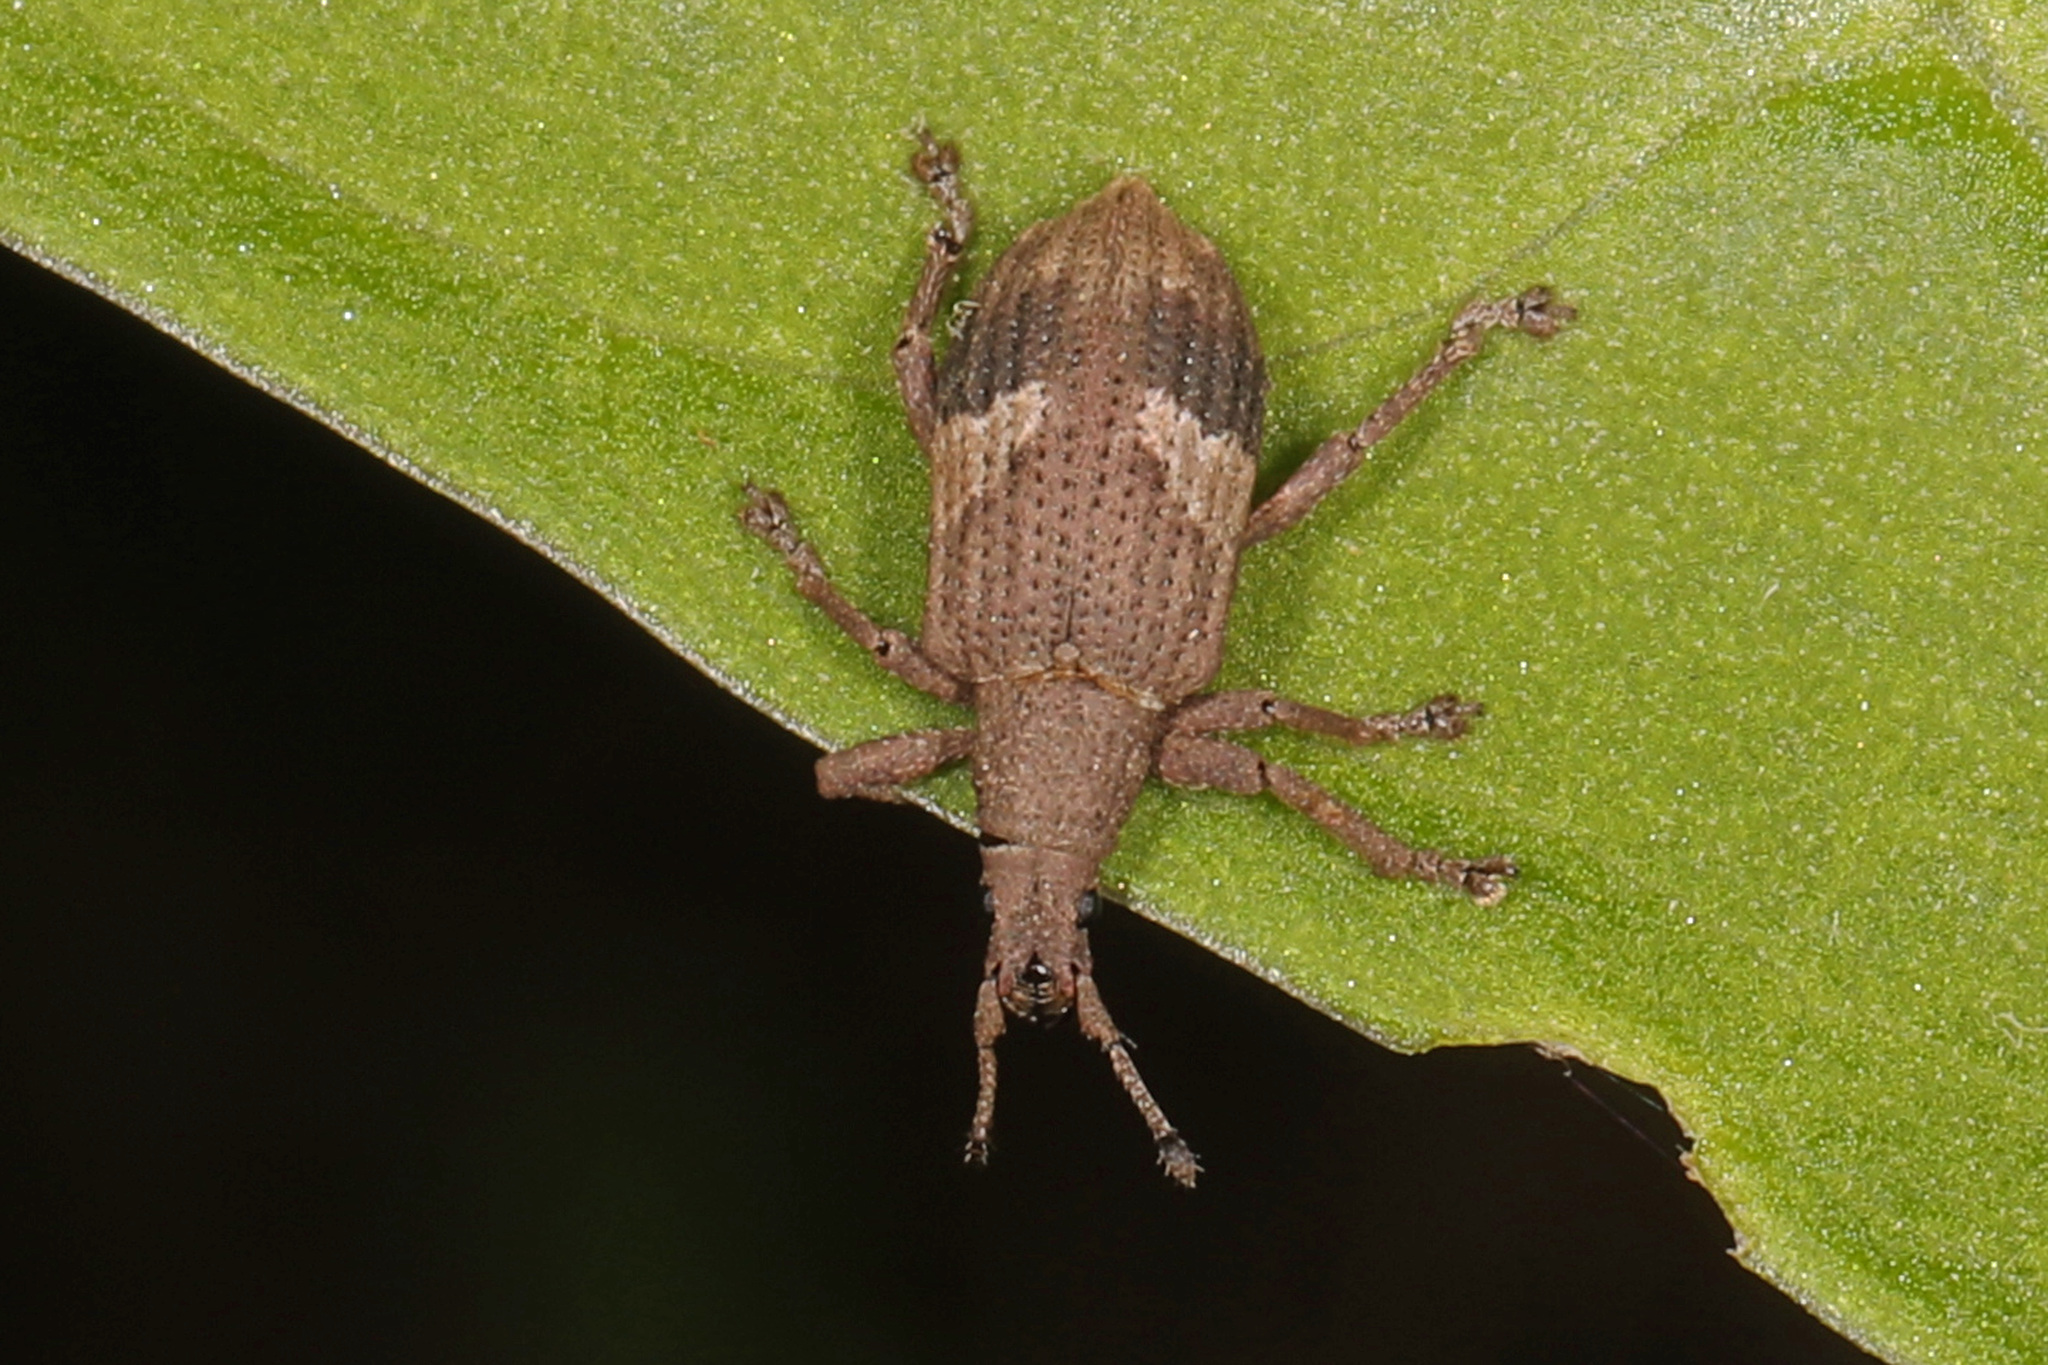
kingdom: Animalia
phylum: Arthropoda
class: Insecta
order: Coleoptera
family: Curculionidae
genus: Brachystylus
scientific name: Brachystylus
